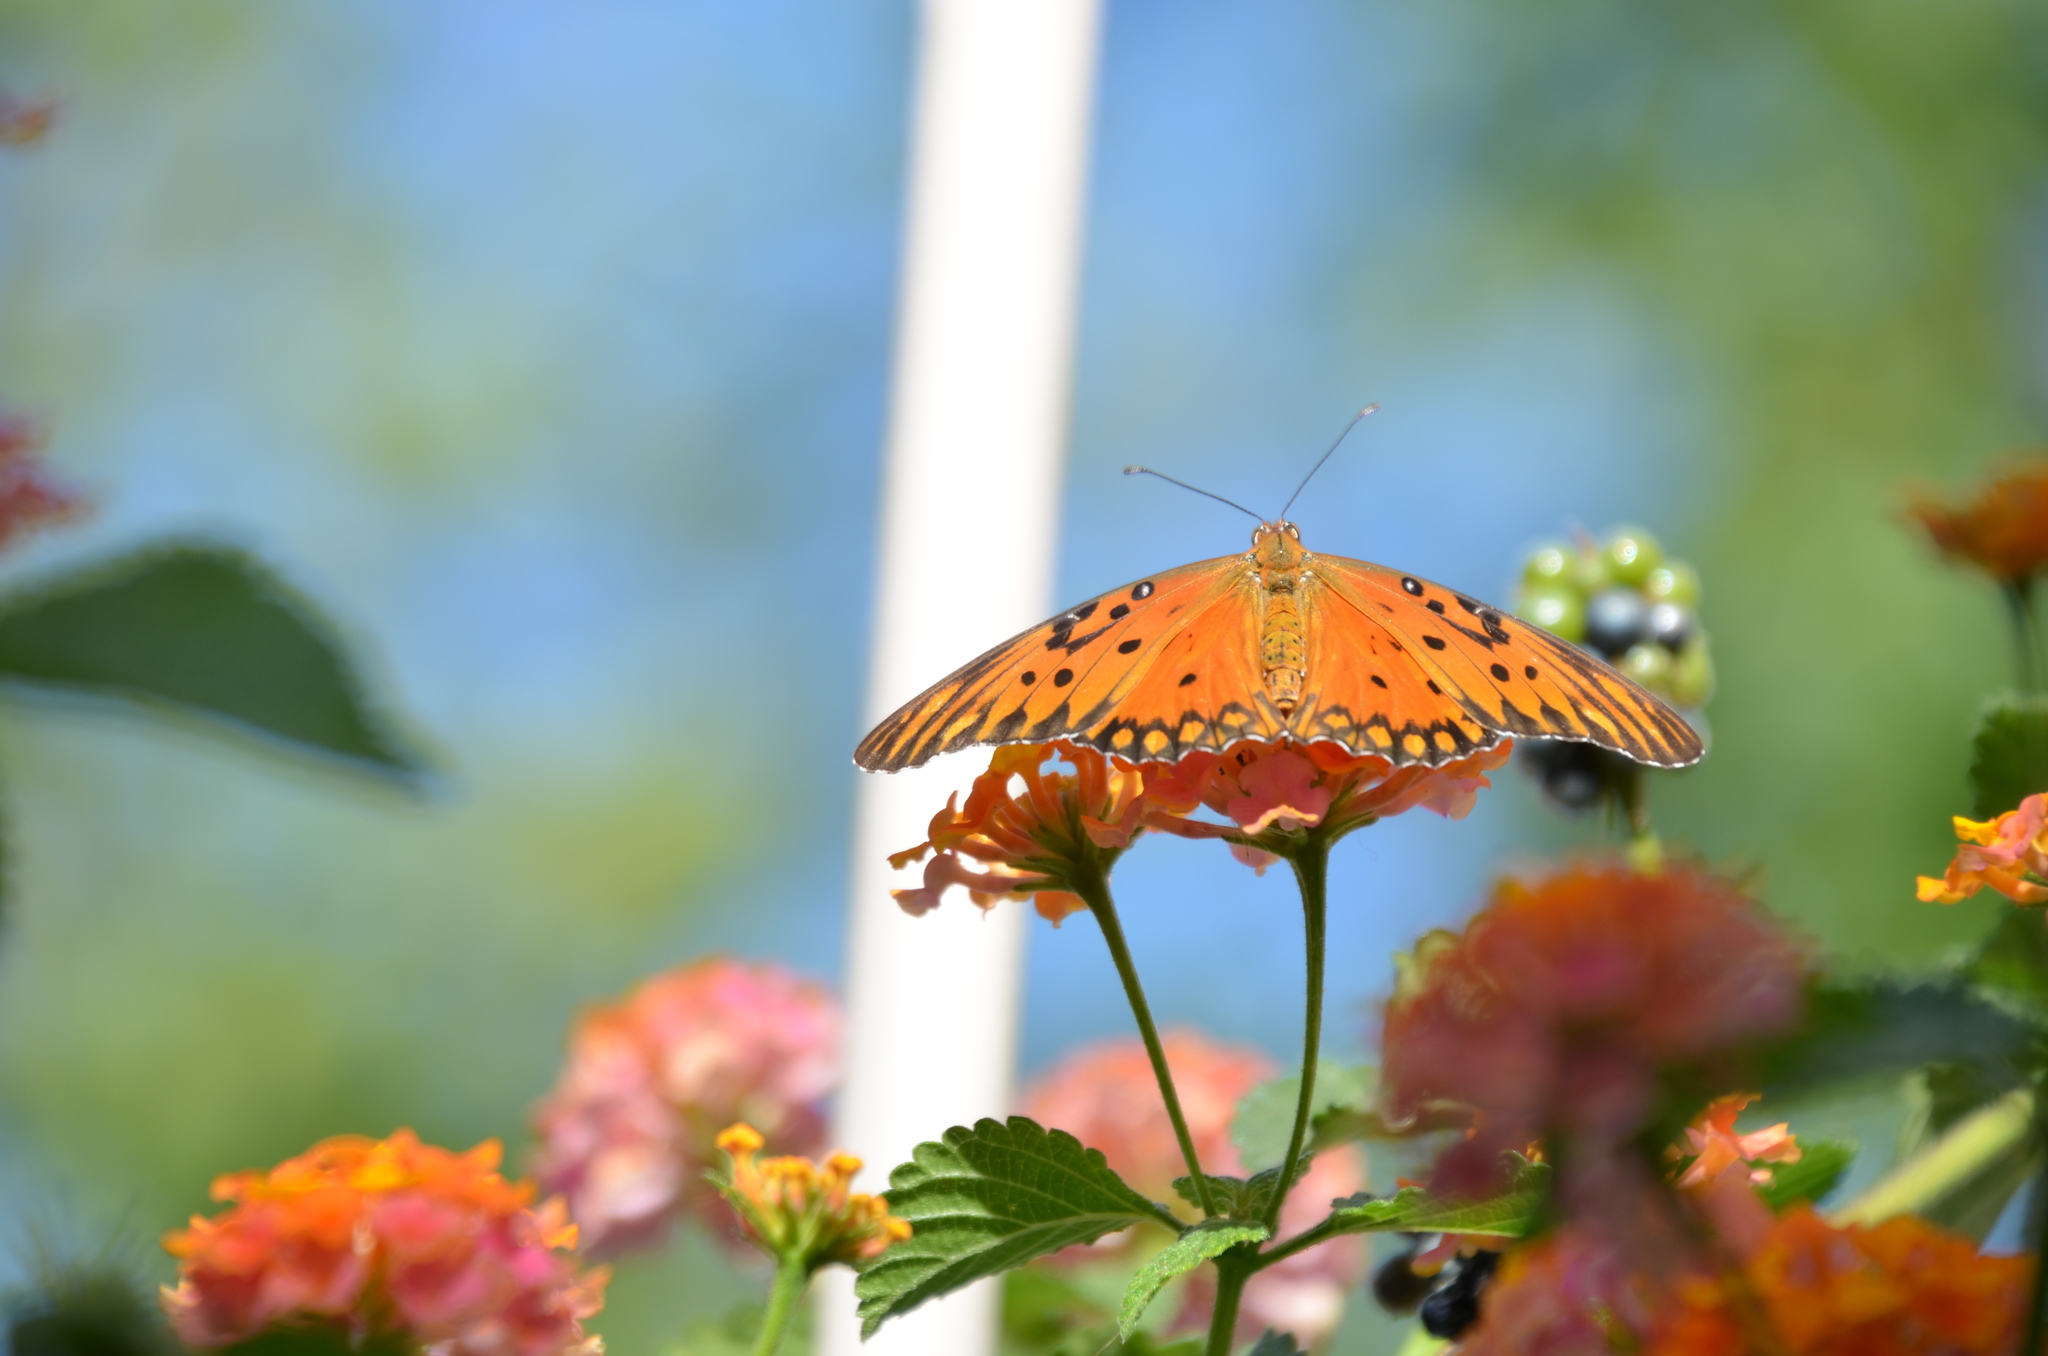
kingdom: Animalia
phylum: Arthropoda
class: Insecta
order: Lepidoptera
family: Nymphalidae
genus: Dione
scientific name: Dione vanillae
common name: Gulf fritillary
